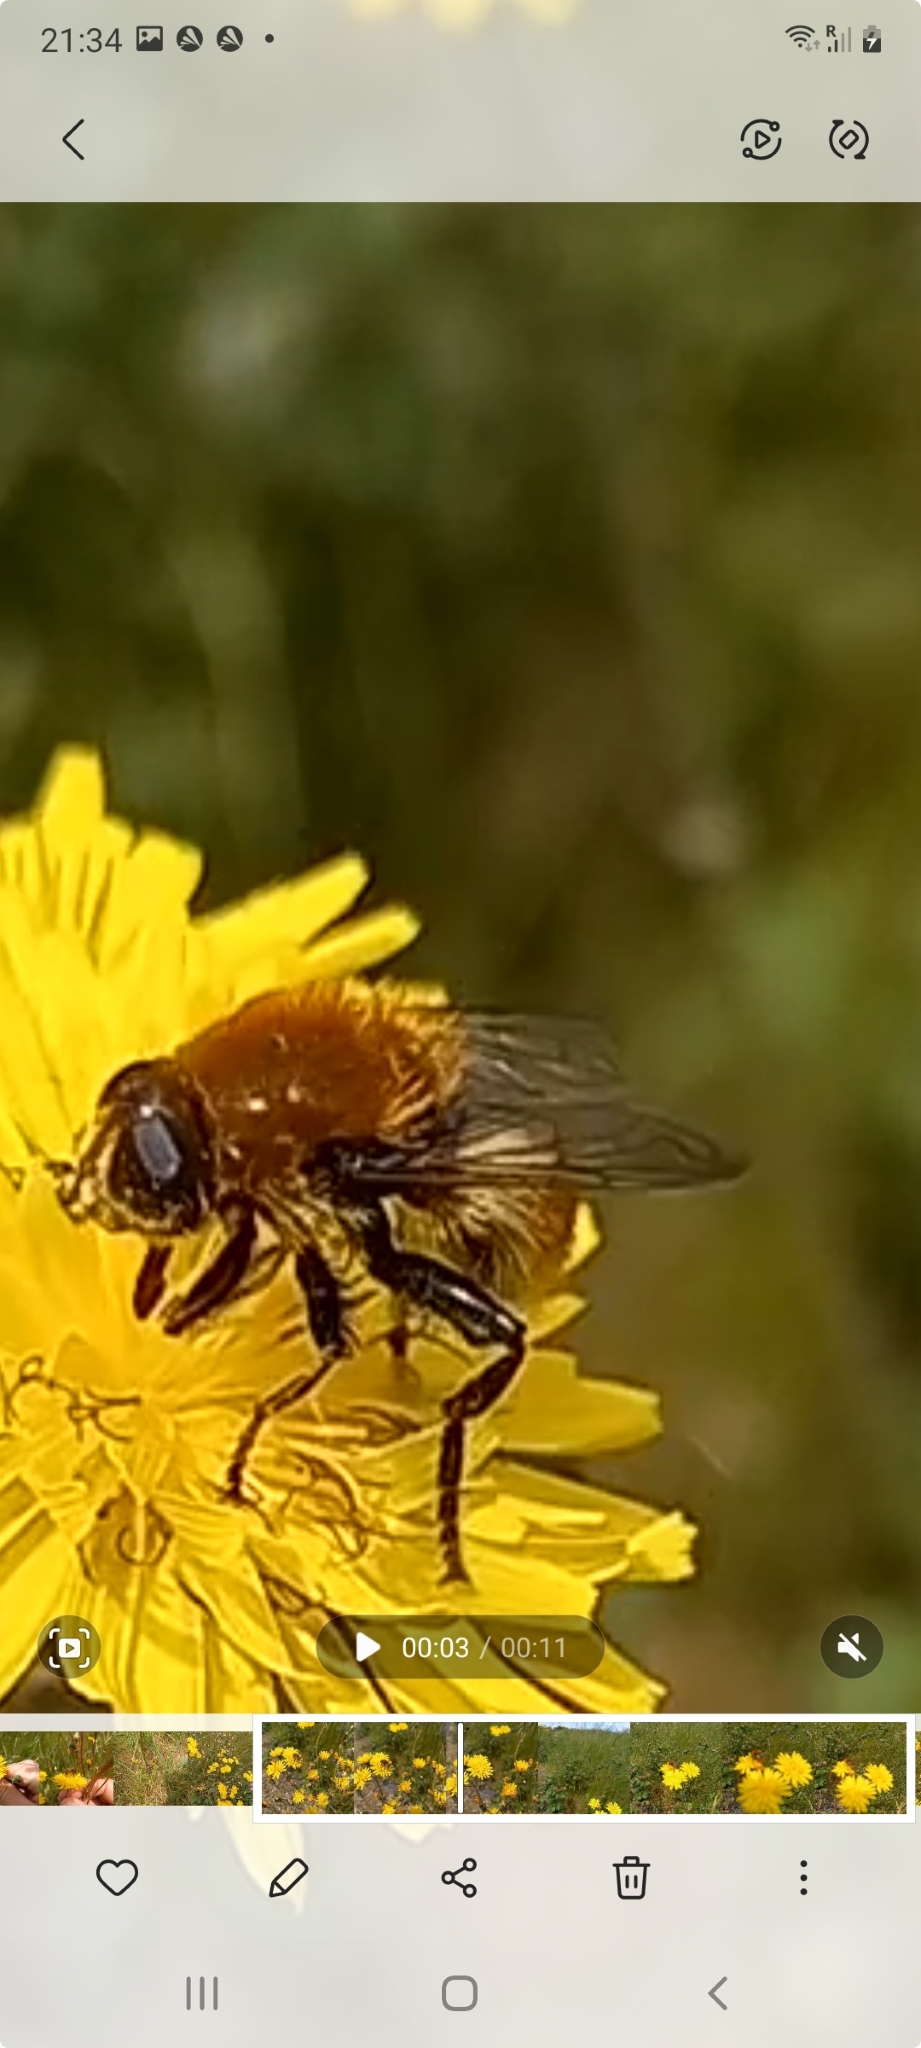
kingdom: Animalia
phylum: Arthropoda
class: Insecta
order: Diptera
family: Syrphidae
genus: Merodon
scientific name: Merodon equestris
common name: Greater bulb-fly
